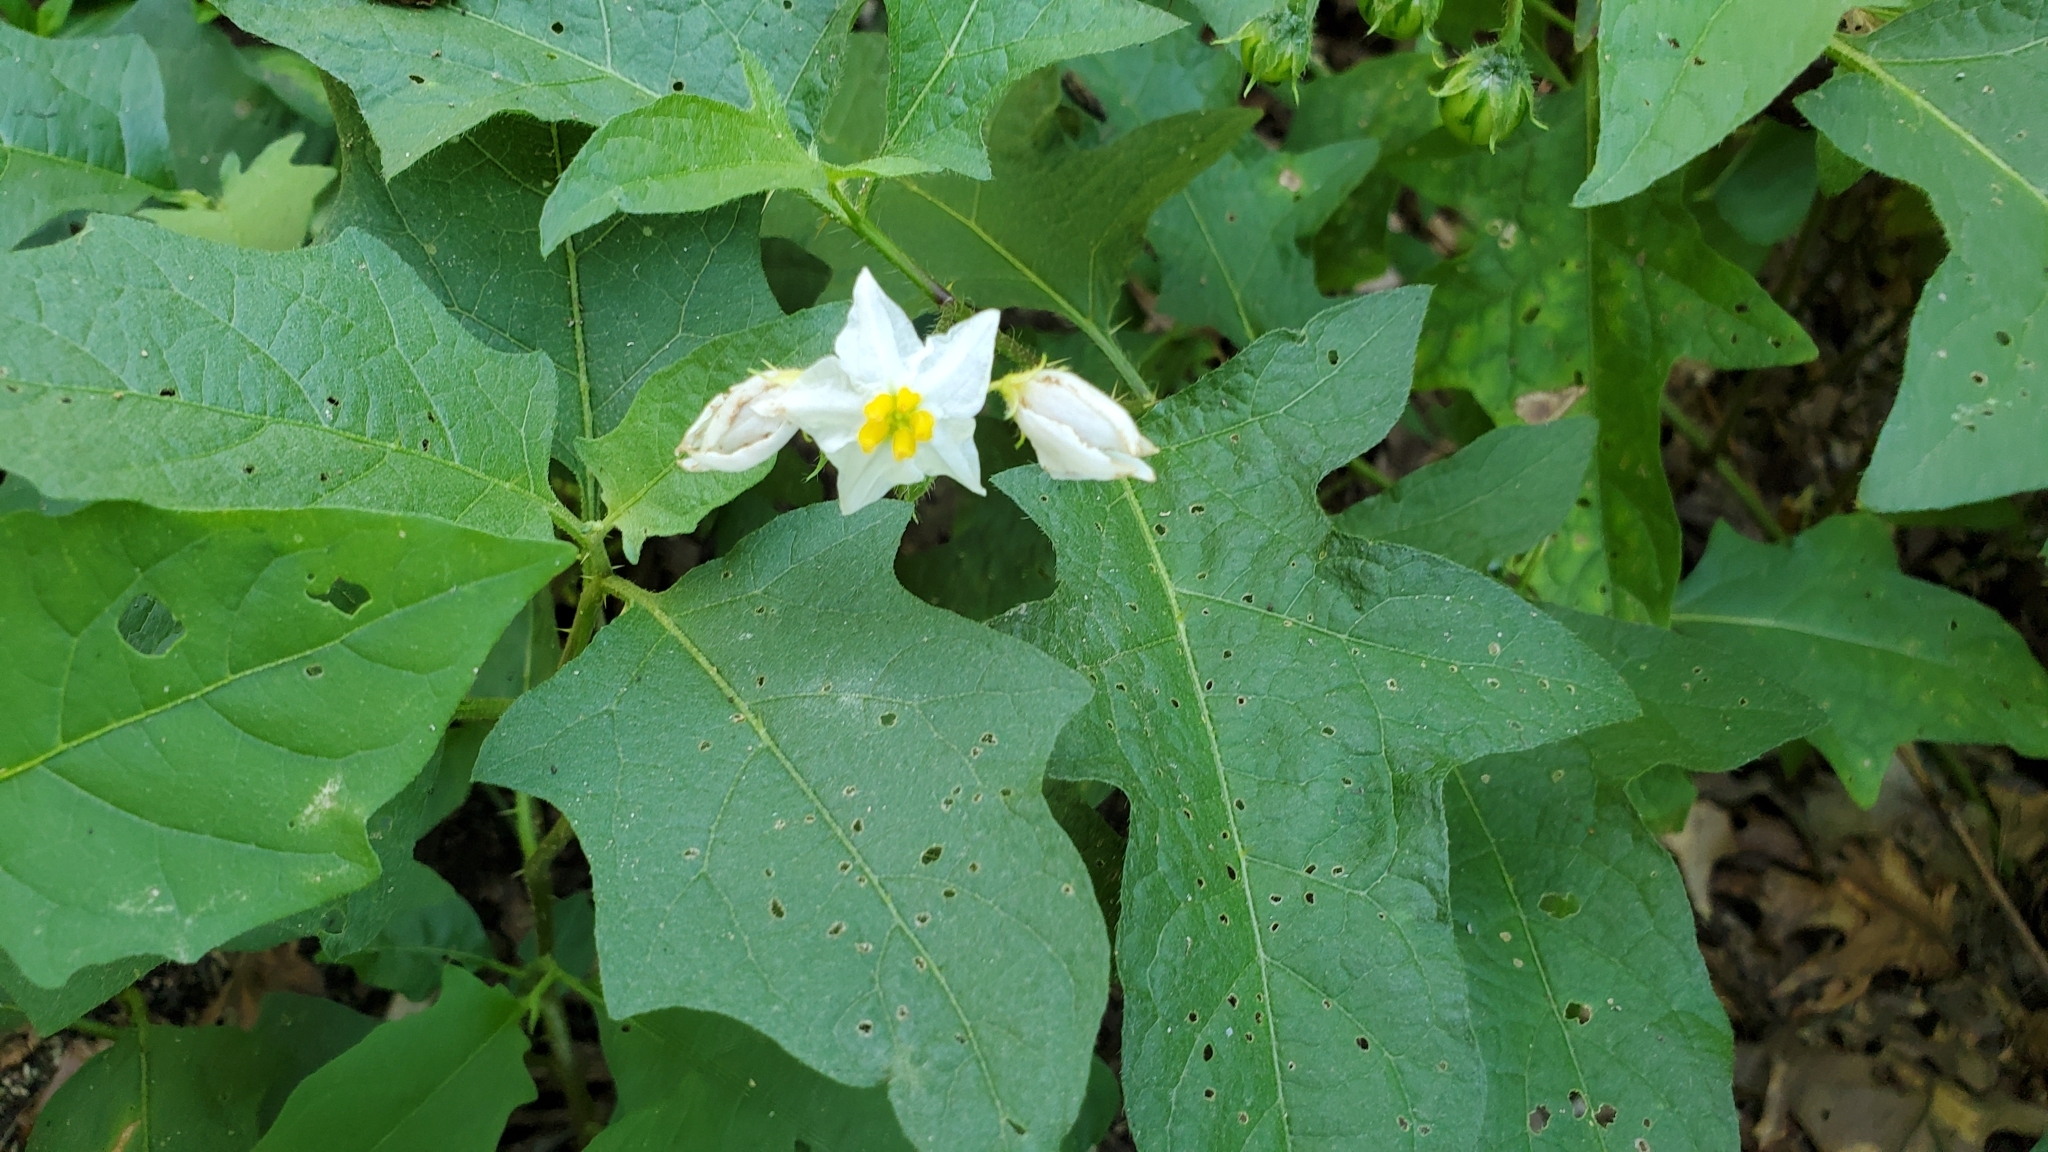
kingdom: Plantae
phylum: Tracheophyta
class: Magnoliopsida
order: Solanales
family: Solanaceae
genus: Solanum
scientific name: Solanum carolinense
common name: Horse-nettle
